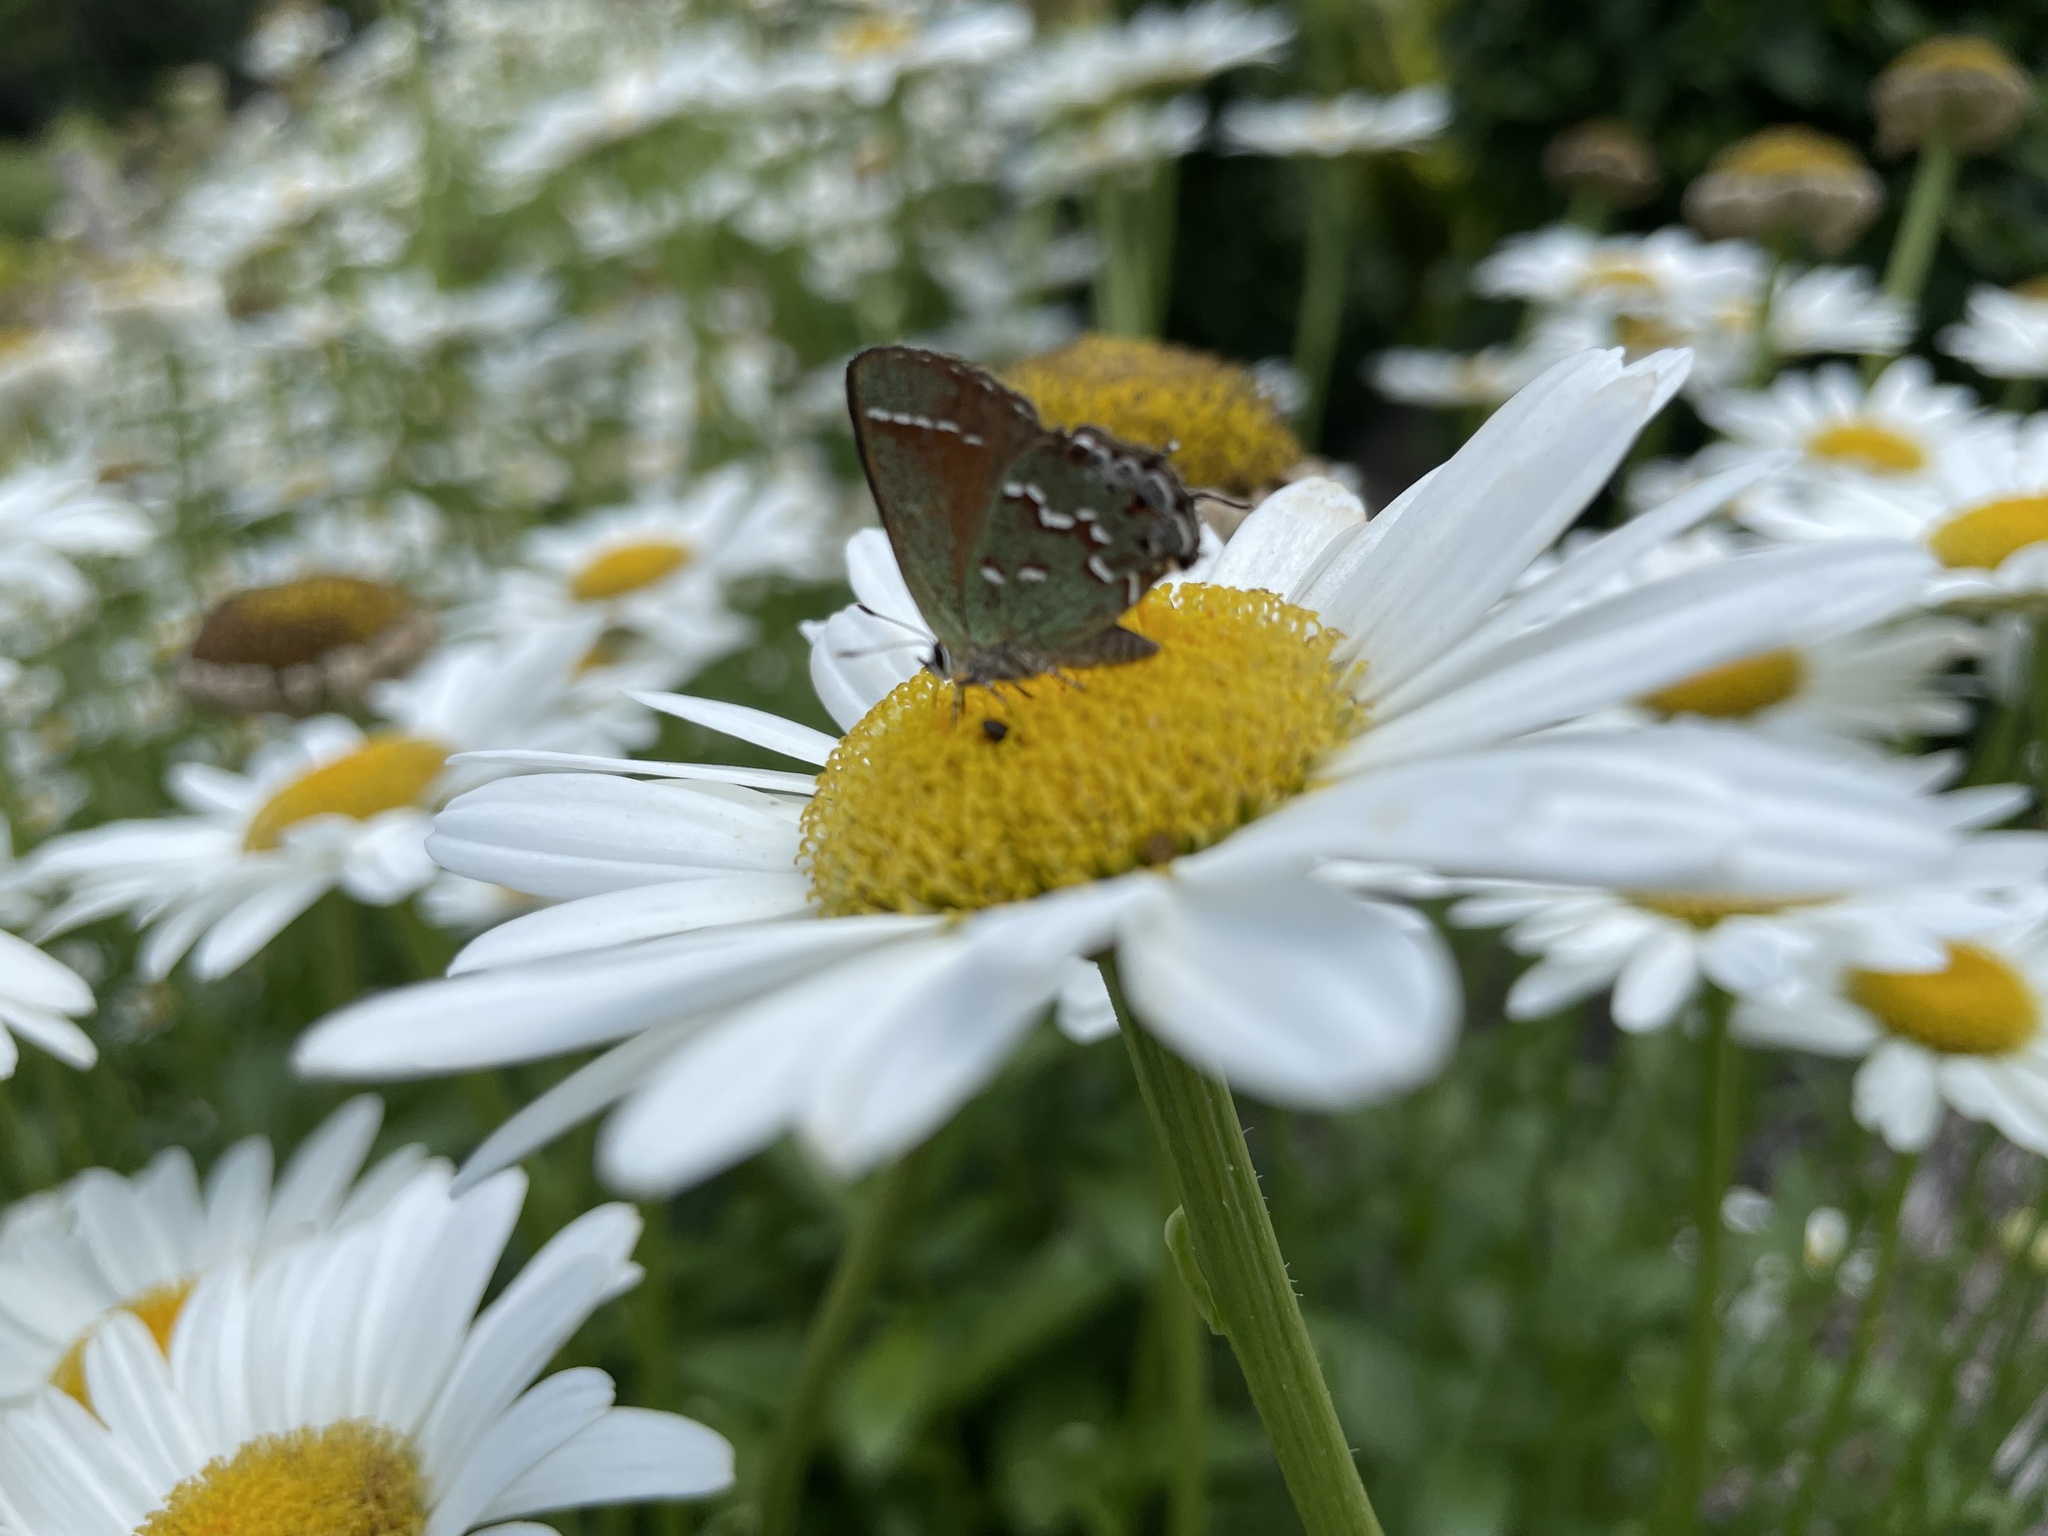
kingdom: Animalia
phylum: Arthropoda
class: Insecta
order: Lepidoptera
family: Lycaenidae
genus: Mitoura
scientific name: Mitoura gryneus
